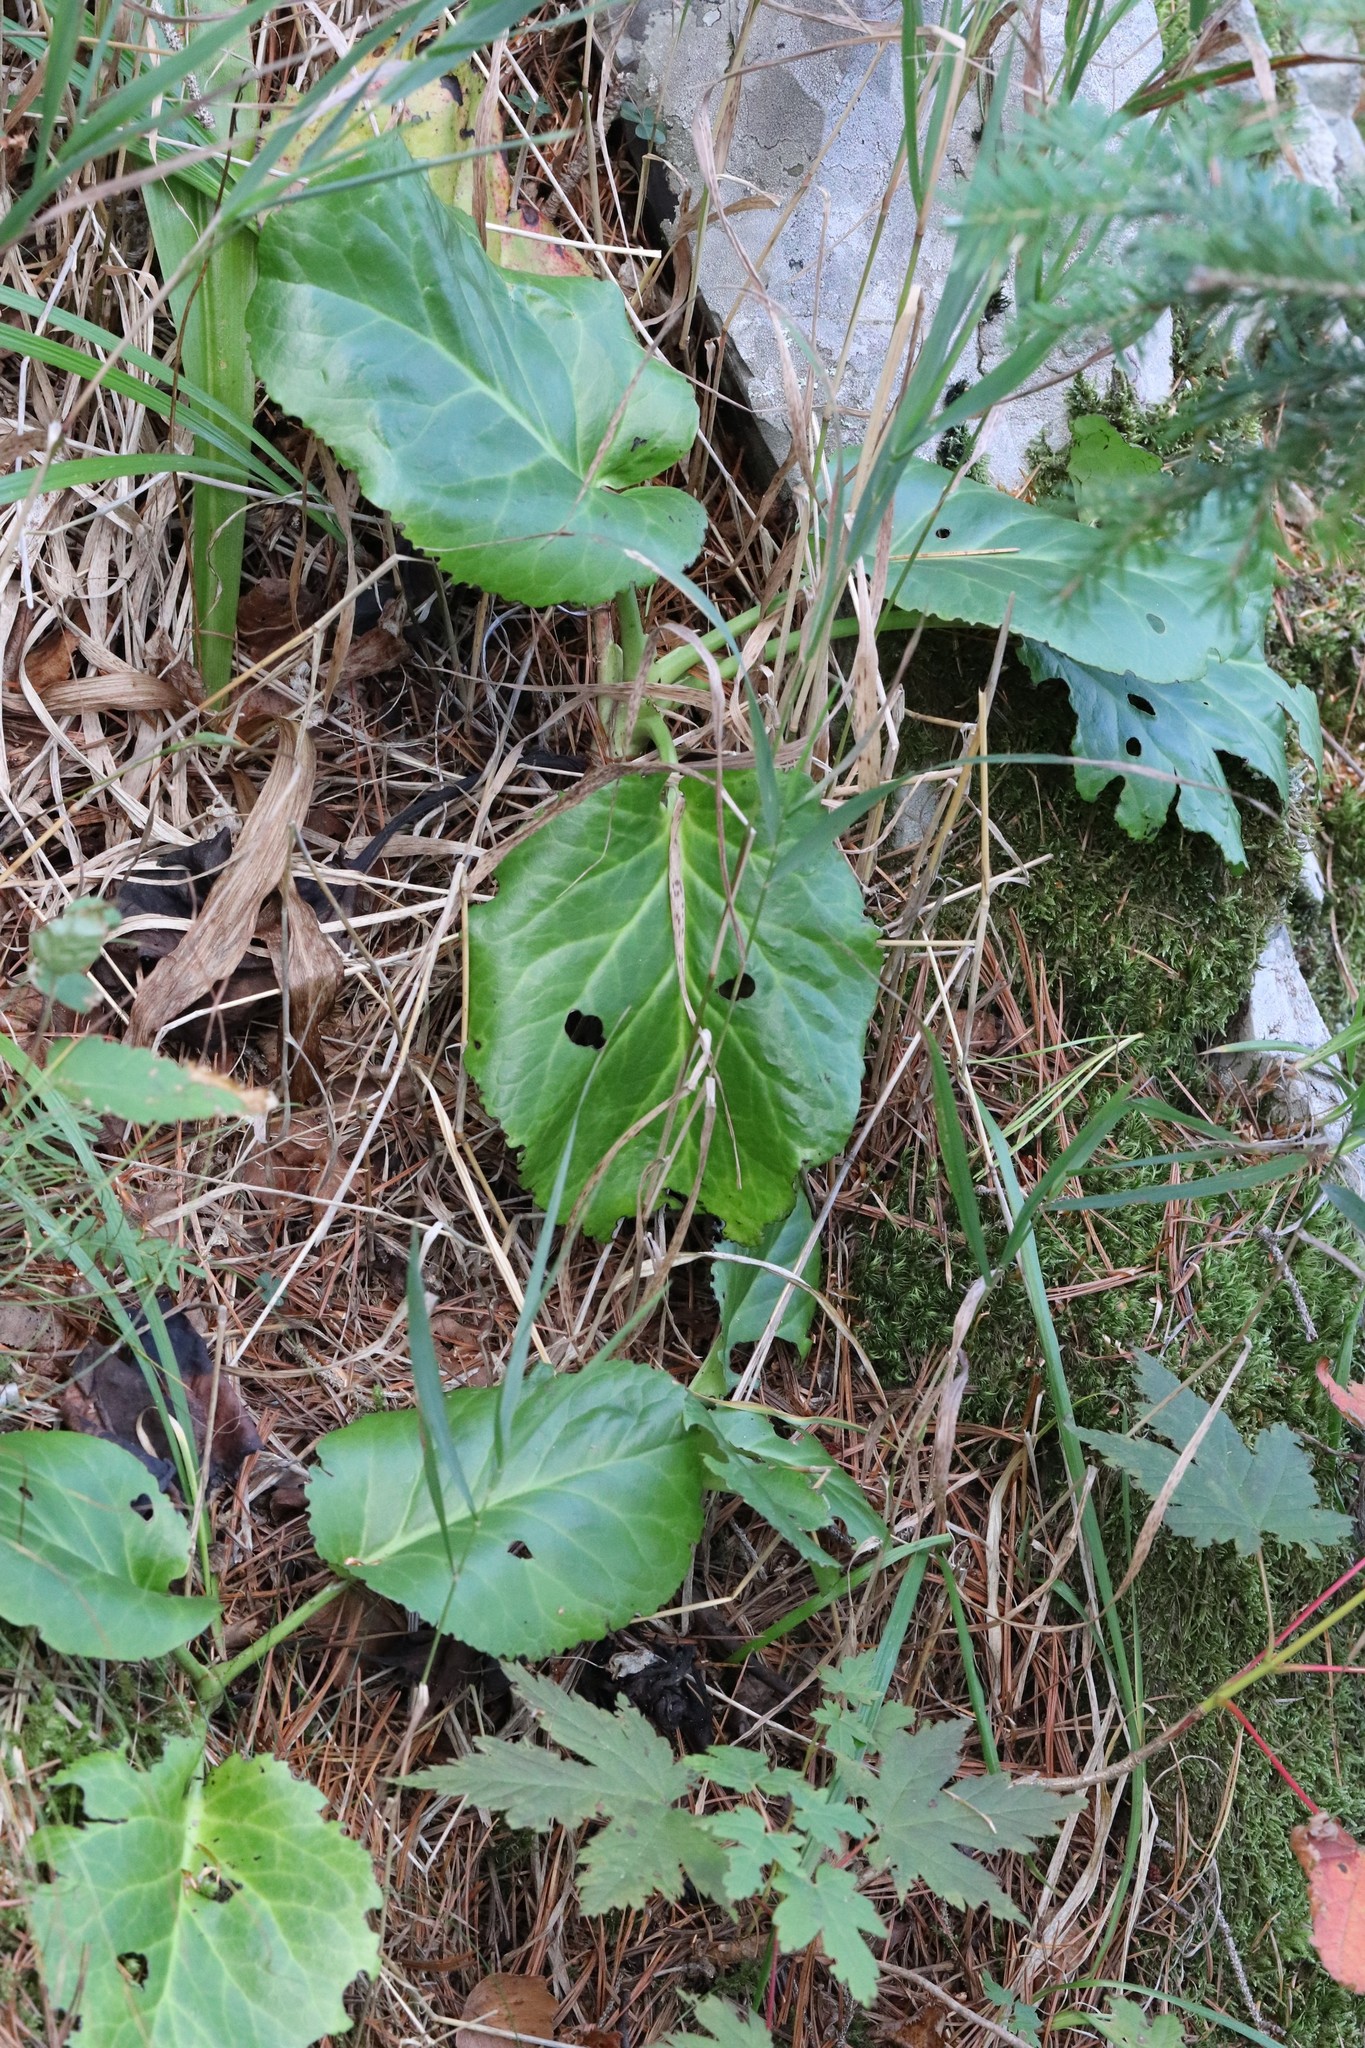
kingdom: Plantae
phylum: Tracheophyta
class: Magnoliopsida
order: Saxifragales
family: Saxifragaceae
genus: Bergenia
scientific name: Bergenia crassifolia
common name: Elephant-ears
